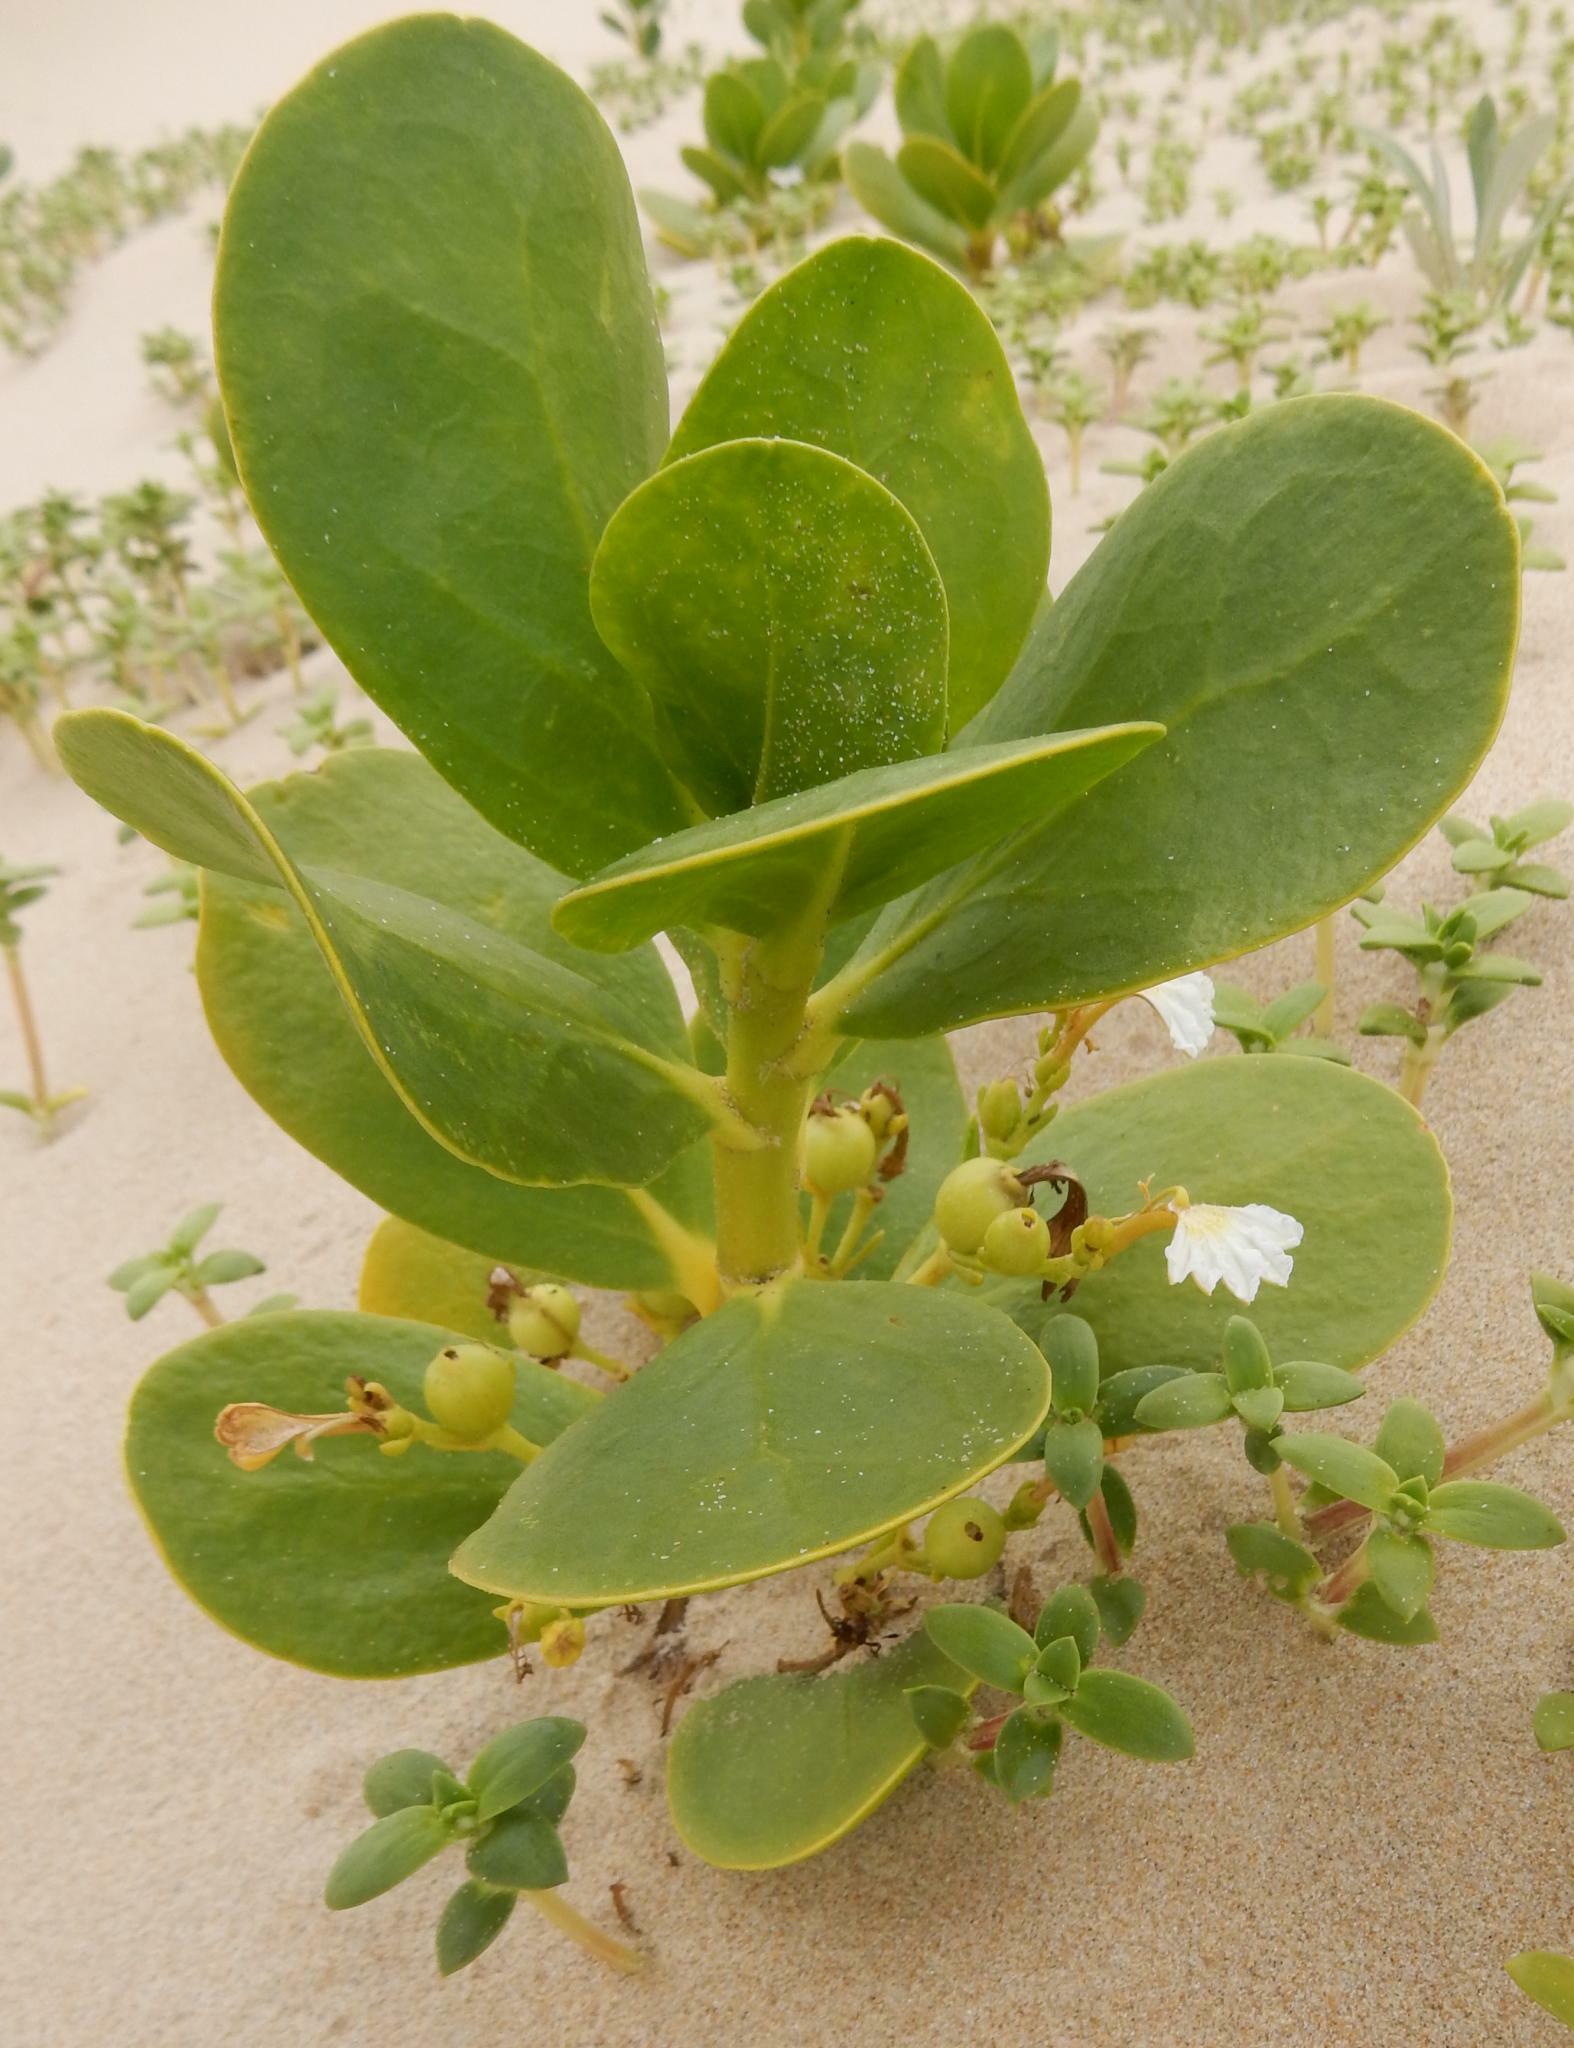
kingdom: Plantae
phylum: Tracheophyta
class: Magnoliopsida
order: Asterales
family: Goodeniaceae
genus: Scaevola
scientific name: Scaevola plumieri
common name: Gull feed
